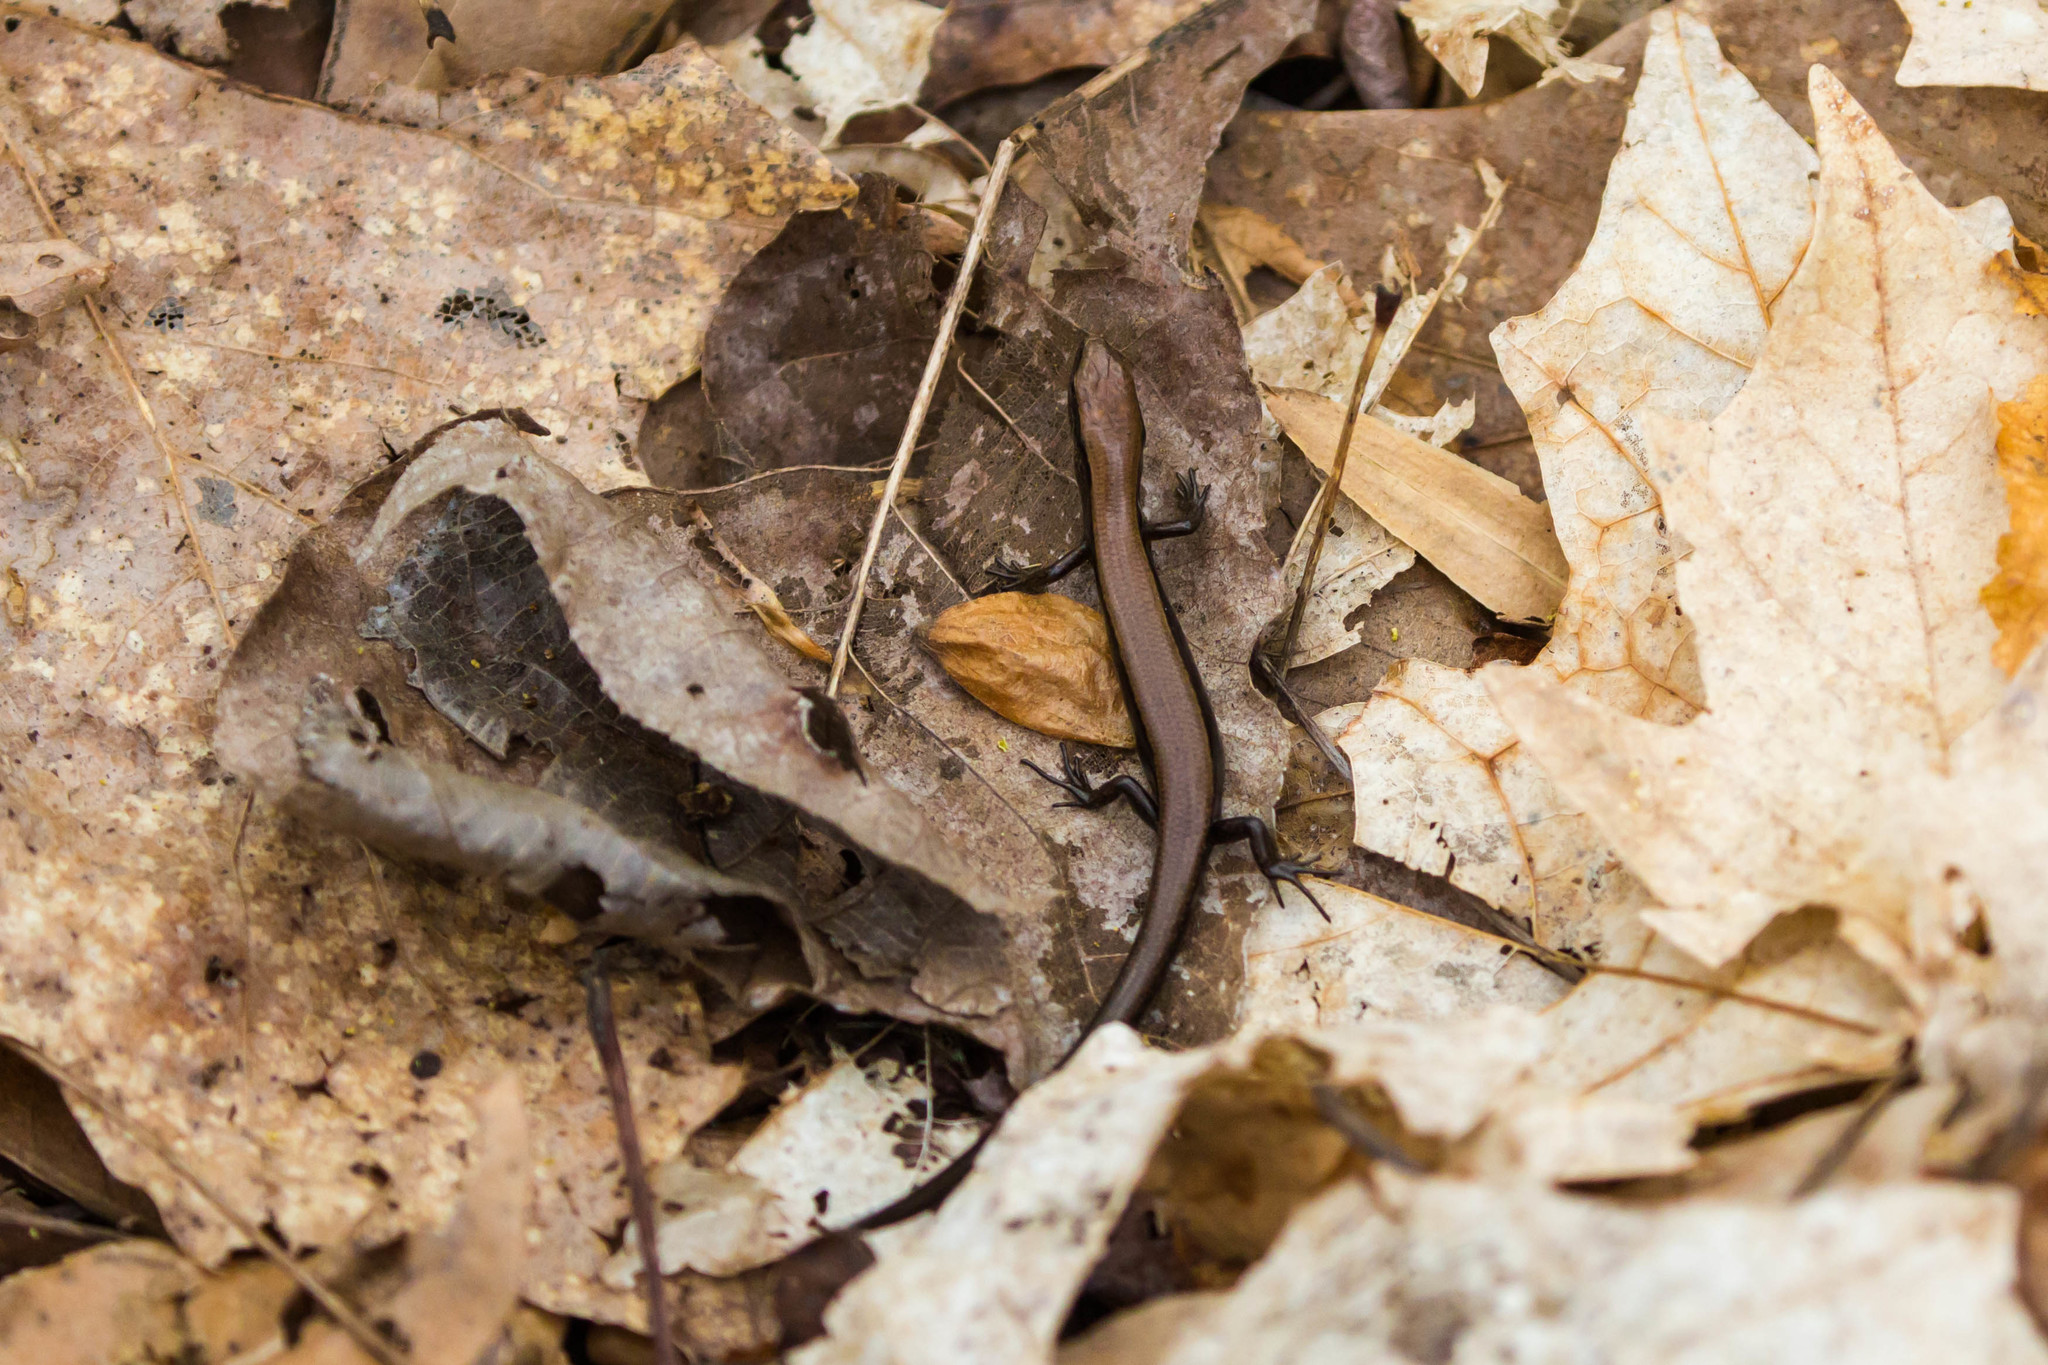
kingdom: Animalia
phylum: Chordata
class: Squamata
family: Scincidae
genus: Scincella
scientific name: Scincella lateralis
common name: Ground skink
